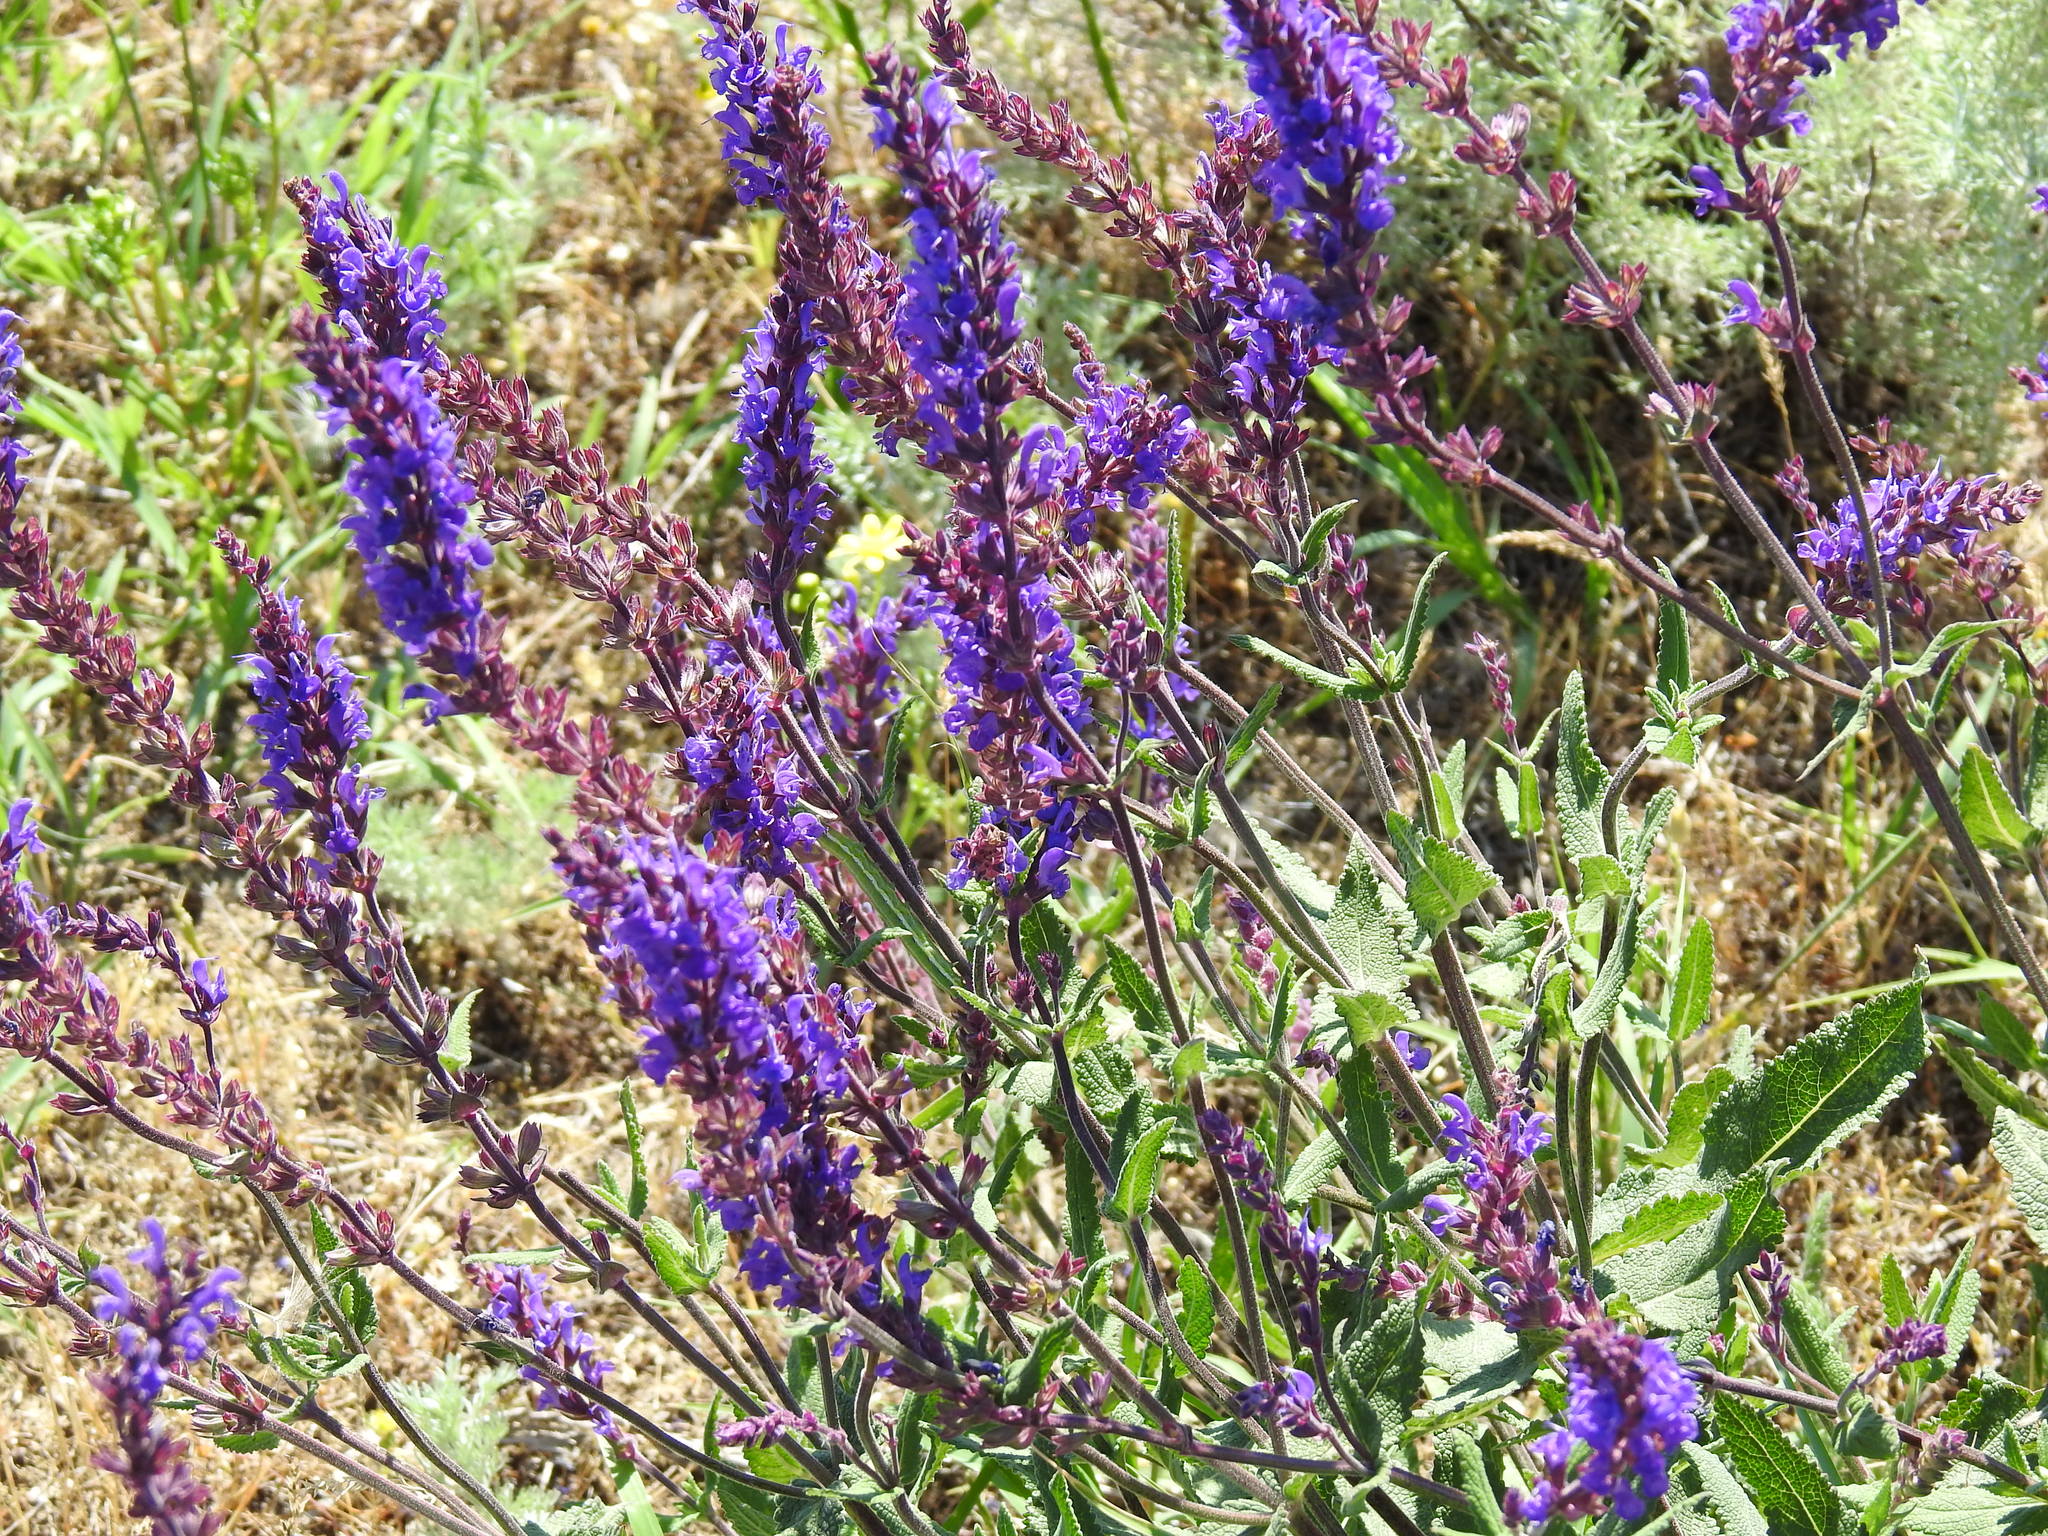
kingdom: Plantae
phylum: Tracheophyta
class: Magnoliopsida
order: Lamiales
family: Lamiaceae
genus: Salvia
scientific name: Salvia nemorosa
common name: Balkan clary
